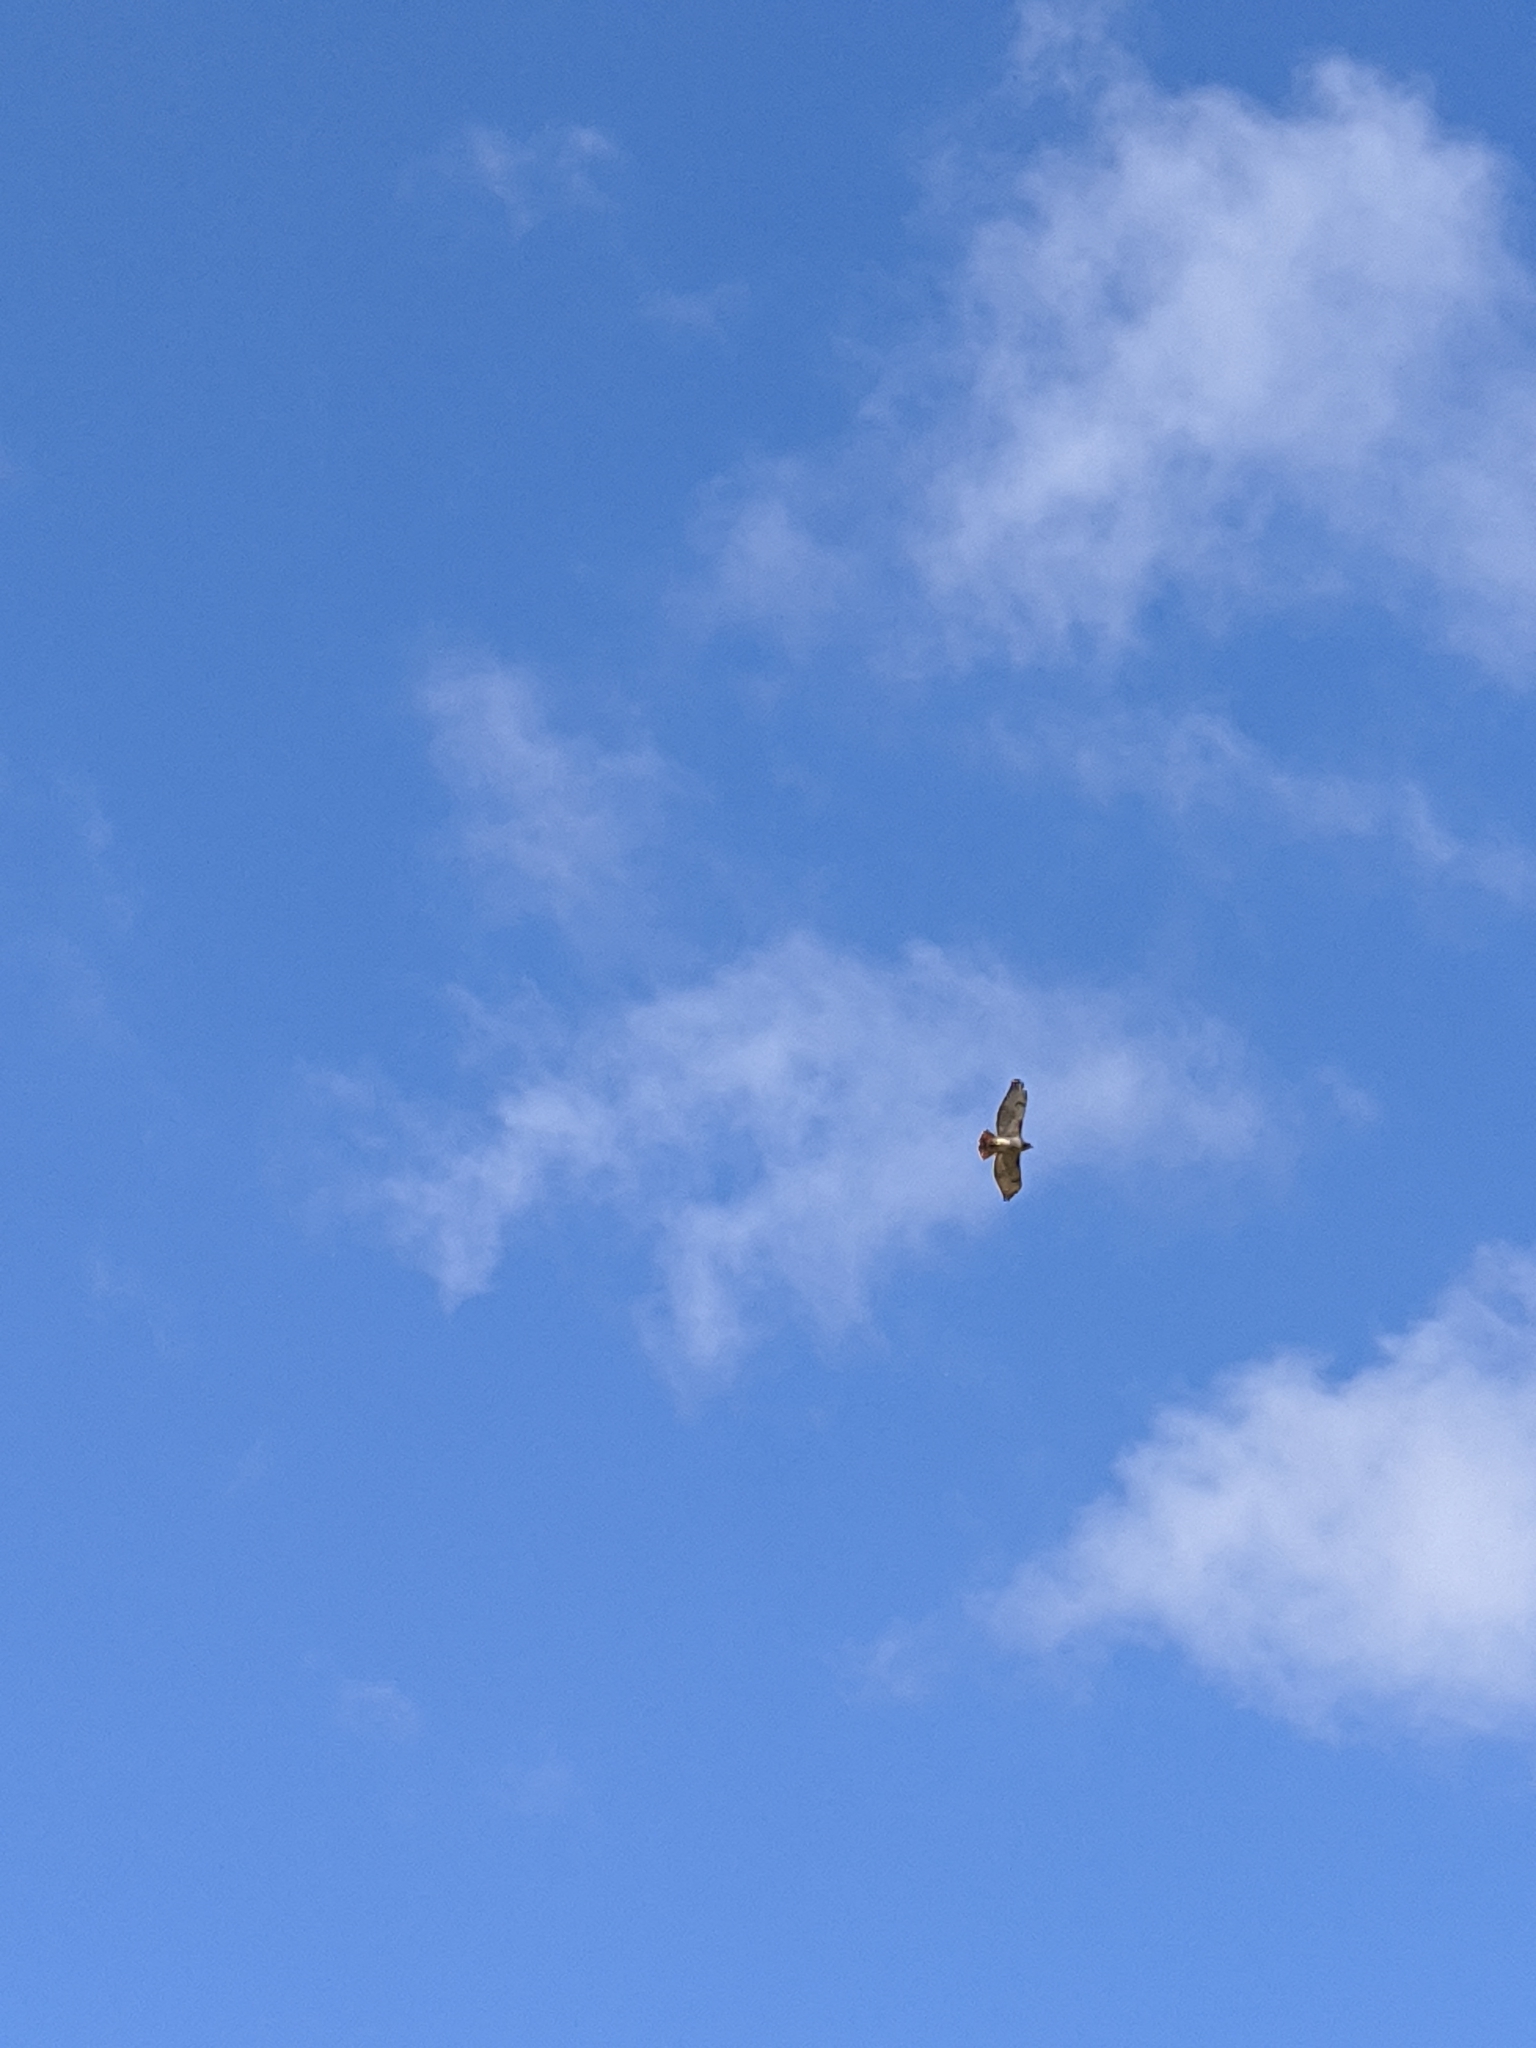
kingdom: Animalia
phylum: Chordata
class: Aves
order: Accipitriformes
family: Accipitridae
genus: Buteo
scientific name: Buteo jamaicensis
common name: Red-tailed hawk
